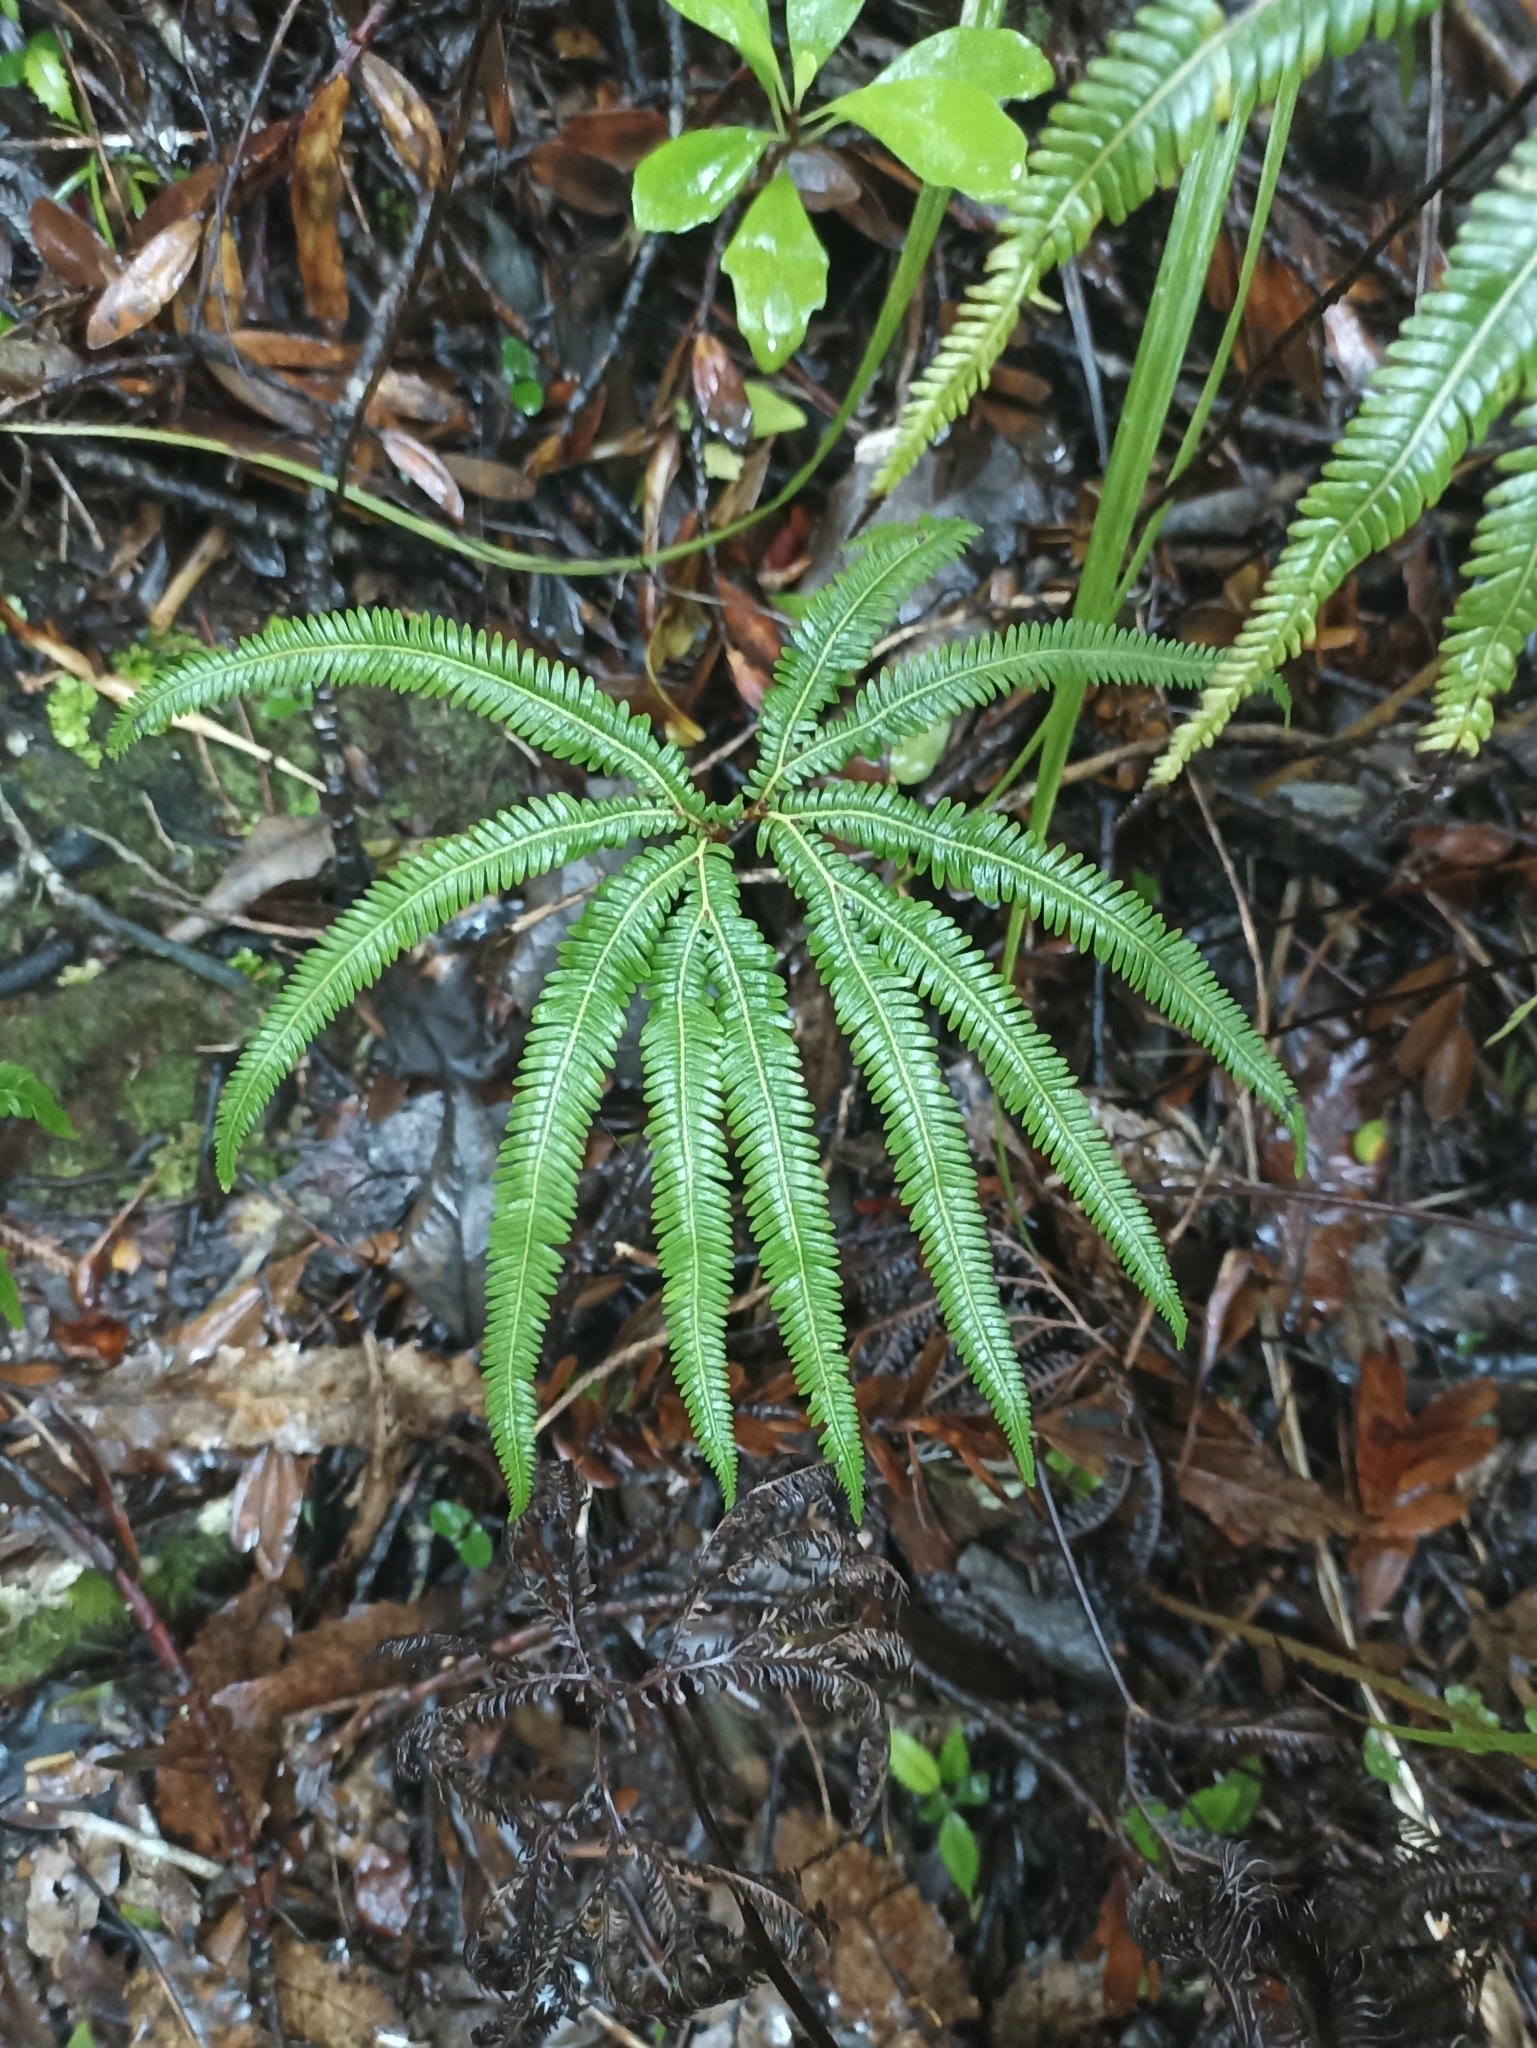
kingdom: Plantae
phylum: Tracheophyta
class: Polypodiopsida
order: Gleicheniales
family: Gleicheniaceae
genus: Sticherus
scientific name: Sticherus cunninghamii
